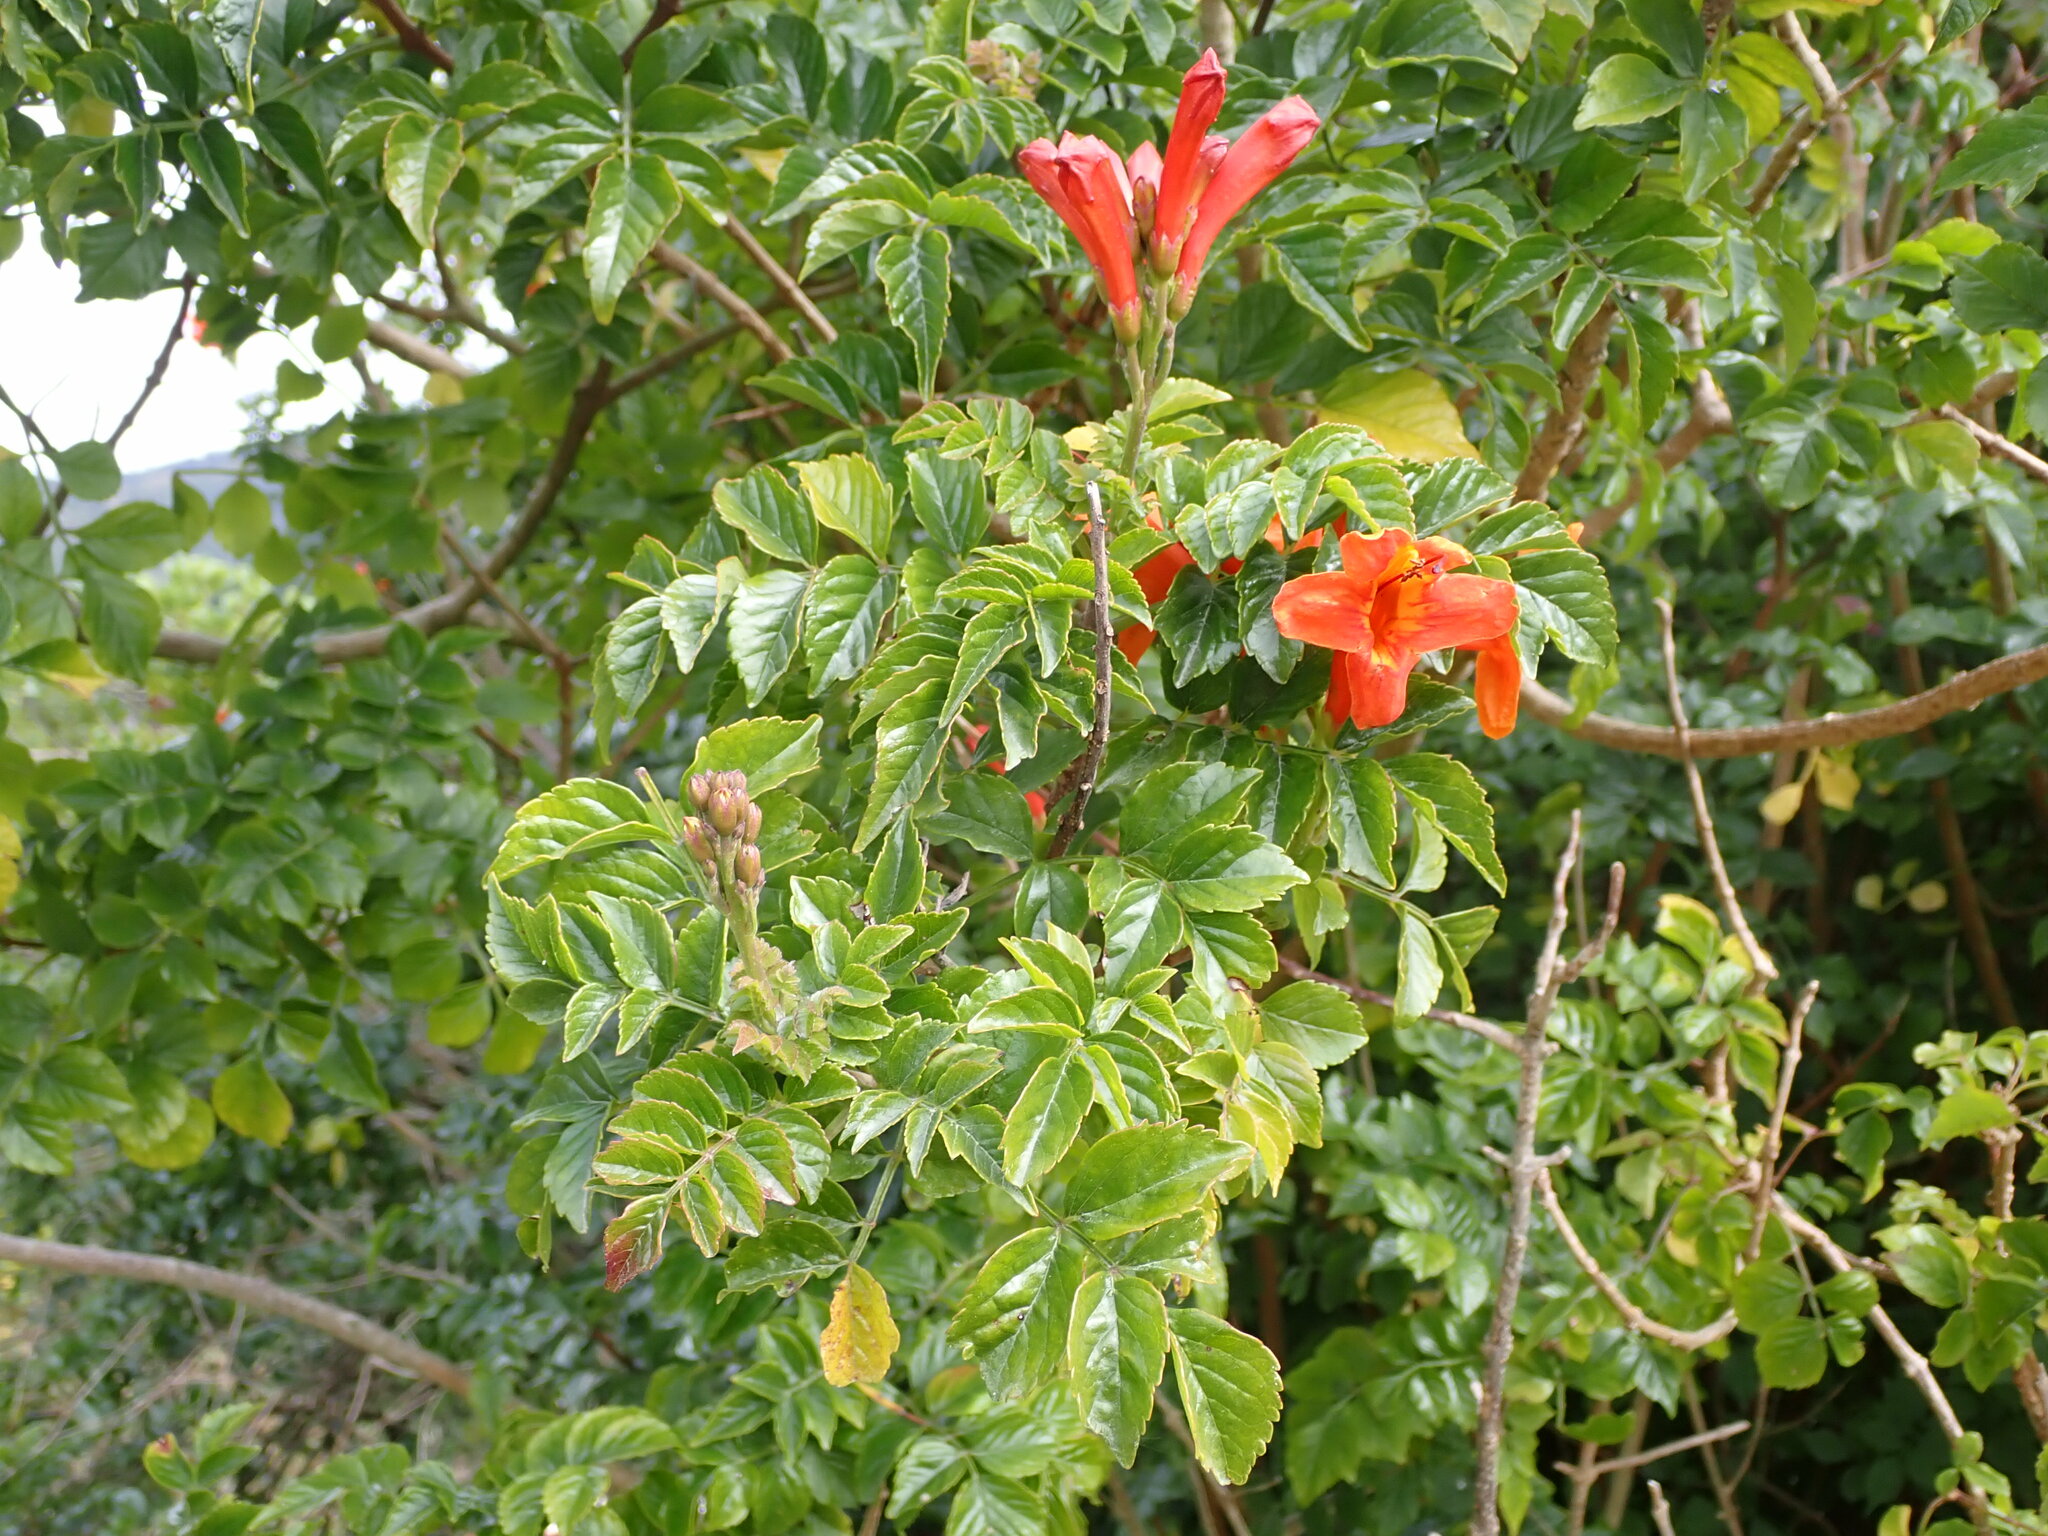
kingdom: Plantae
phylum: Tracheophyta
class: Magnoliopsida
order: Lamiales
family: Bignoniaceae
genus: Tecomaria
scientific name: Tecomaria capensis
